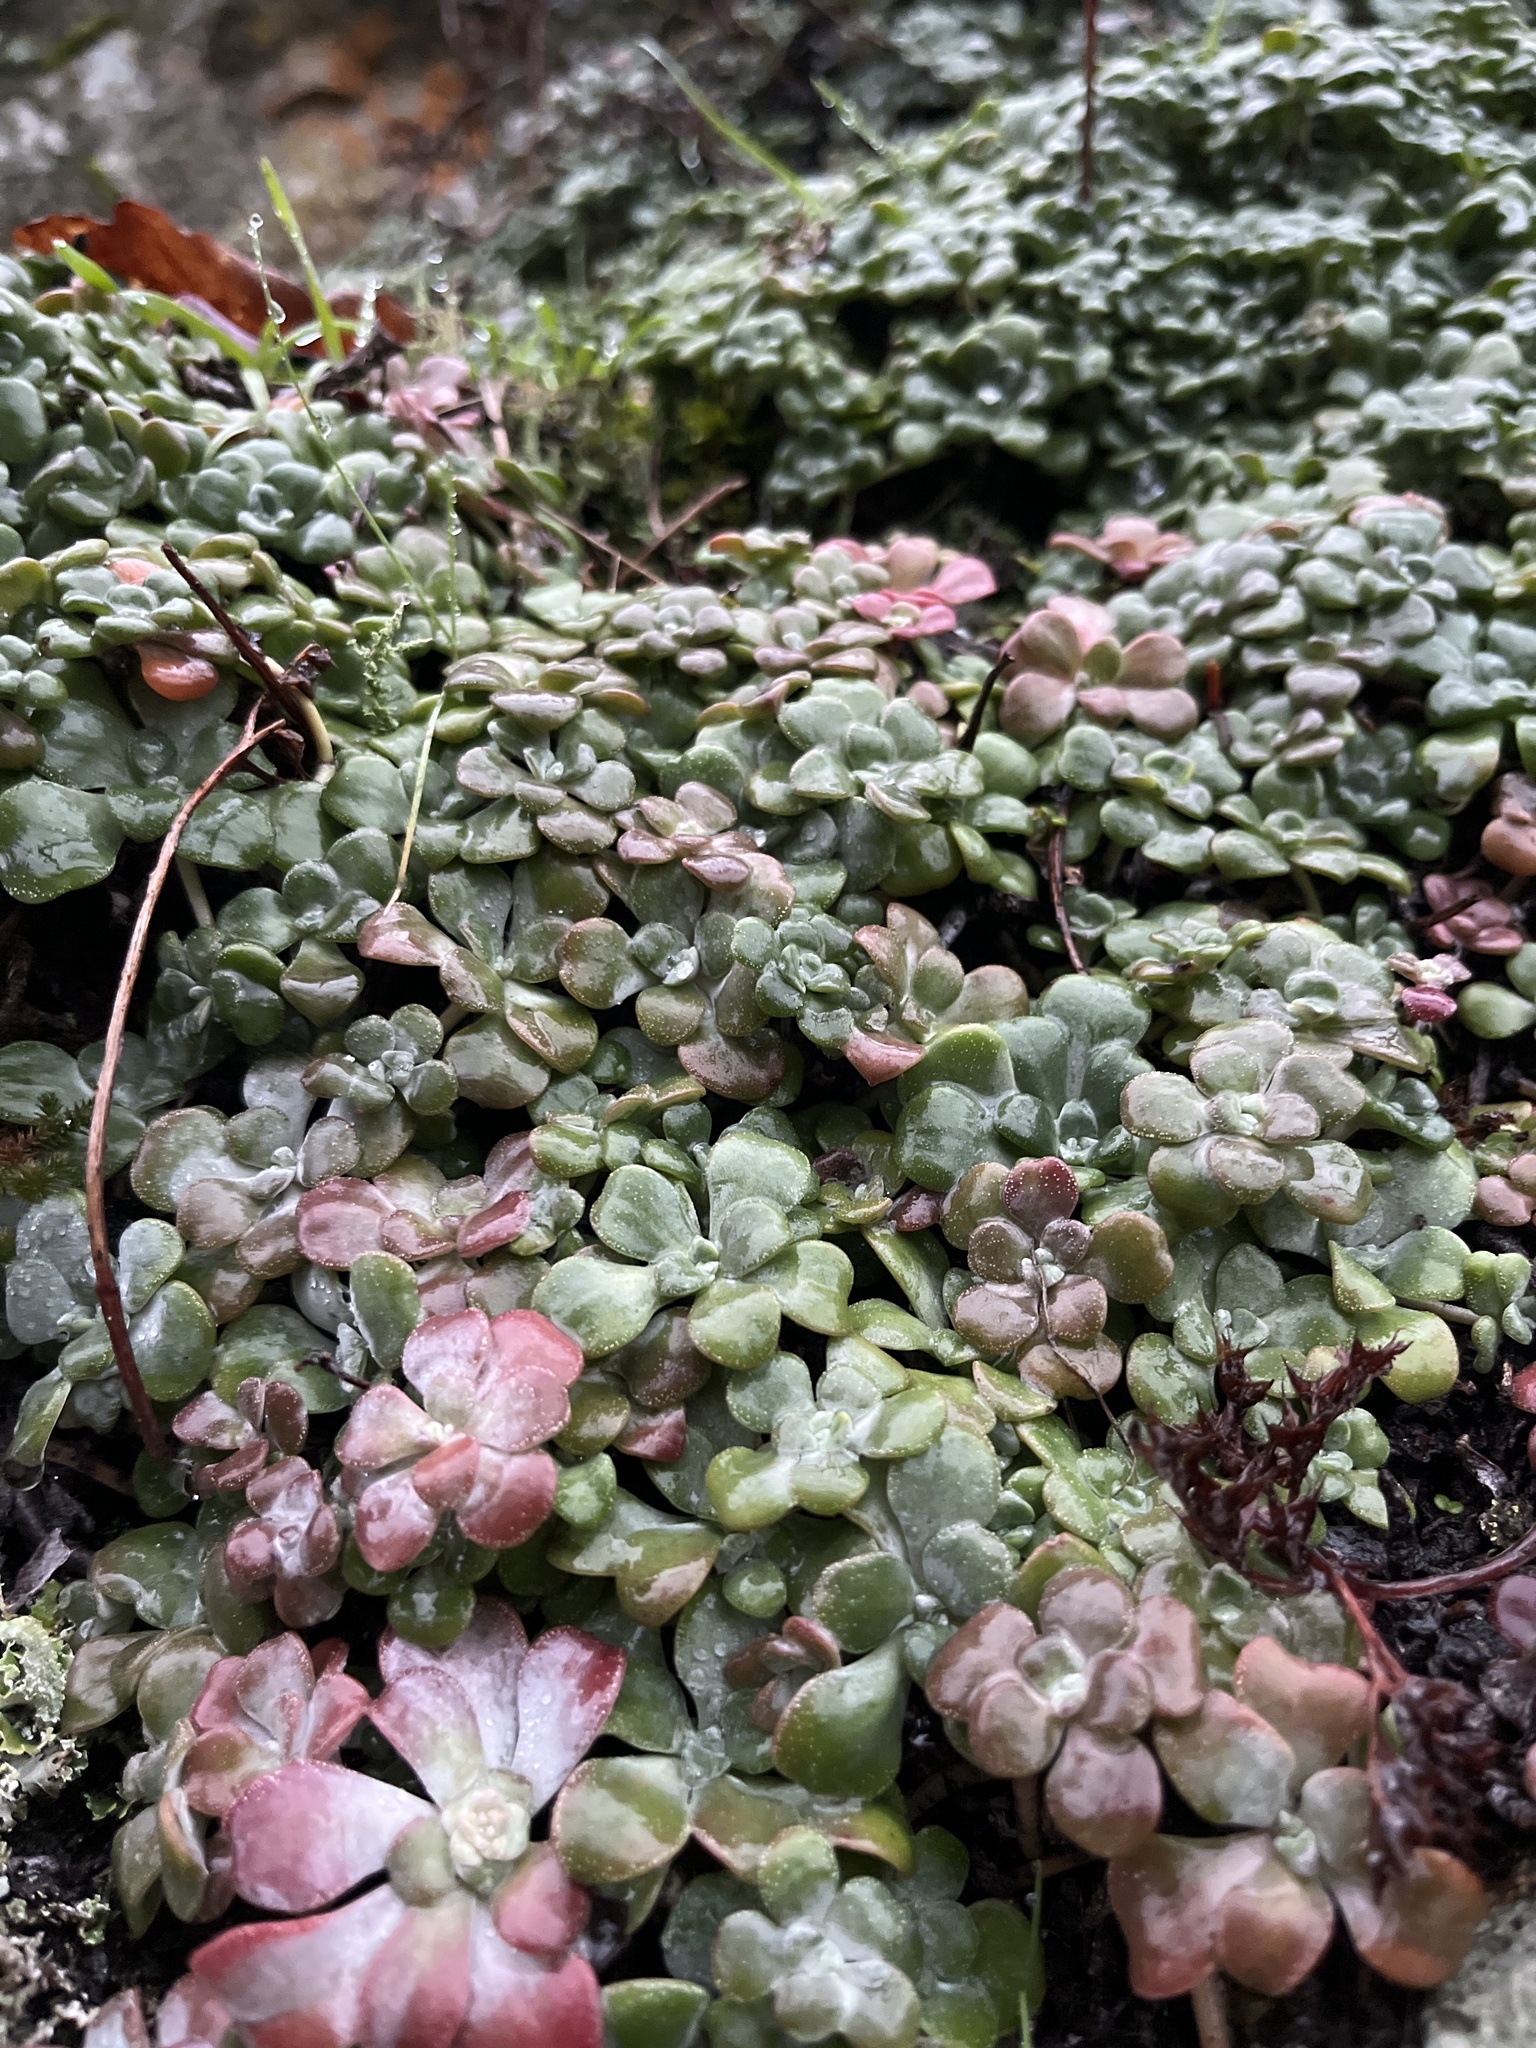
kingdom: Plantae
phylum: Tracheophyta
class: Magnoliopsida
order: Saxifragales
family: Crassulaceae
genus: Sedum
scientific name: Sedum spathulifolium
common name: Colorado stonecrop
